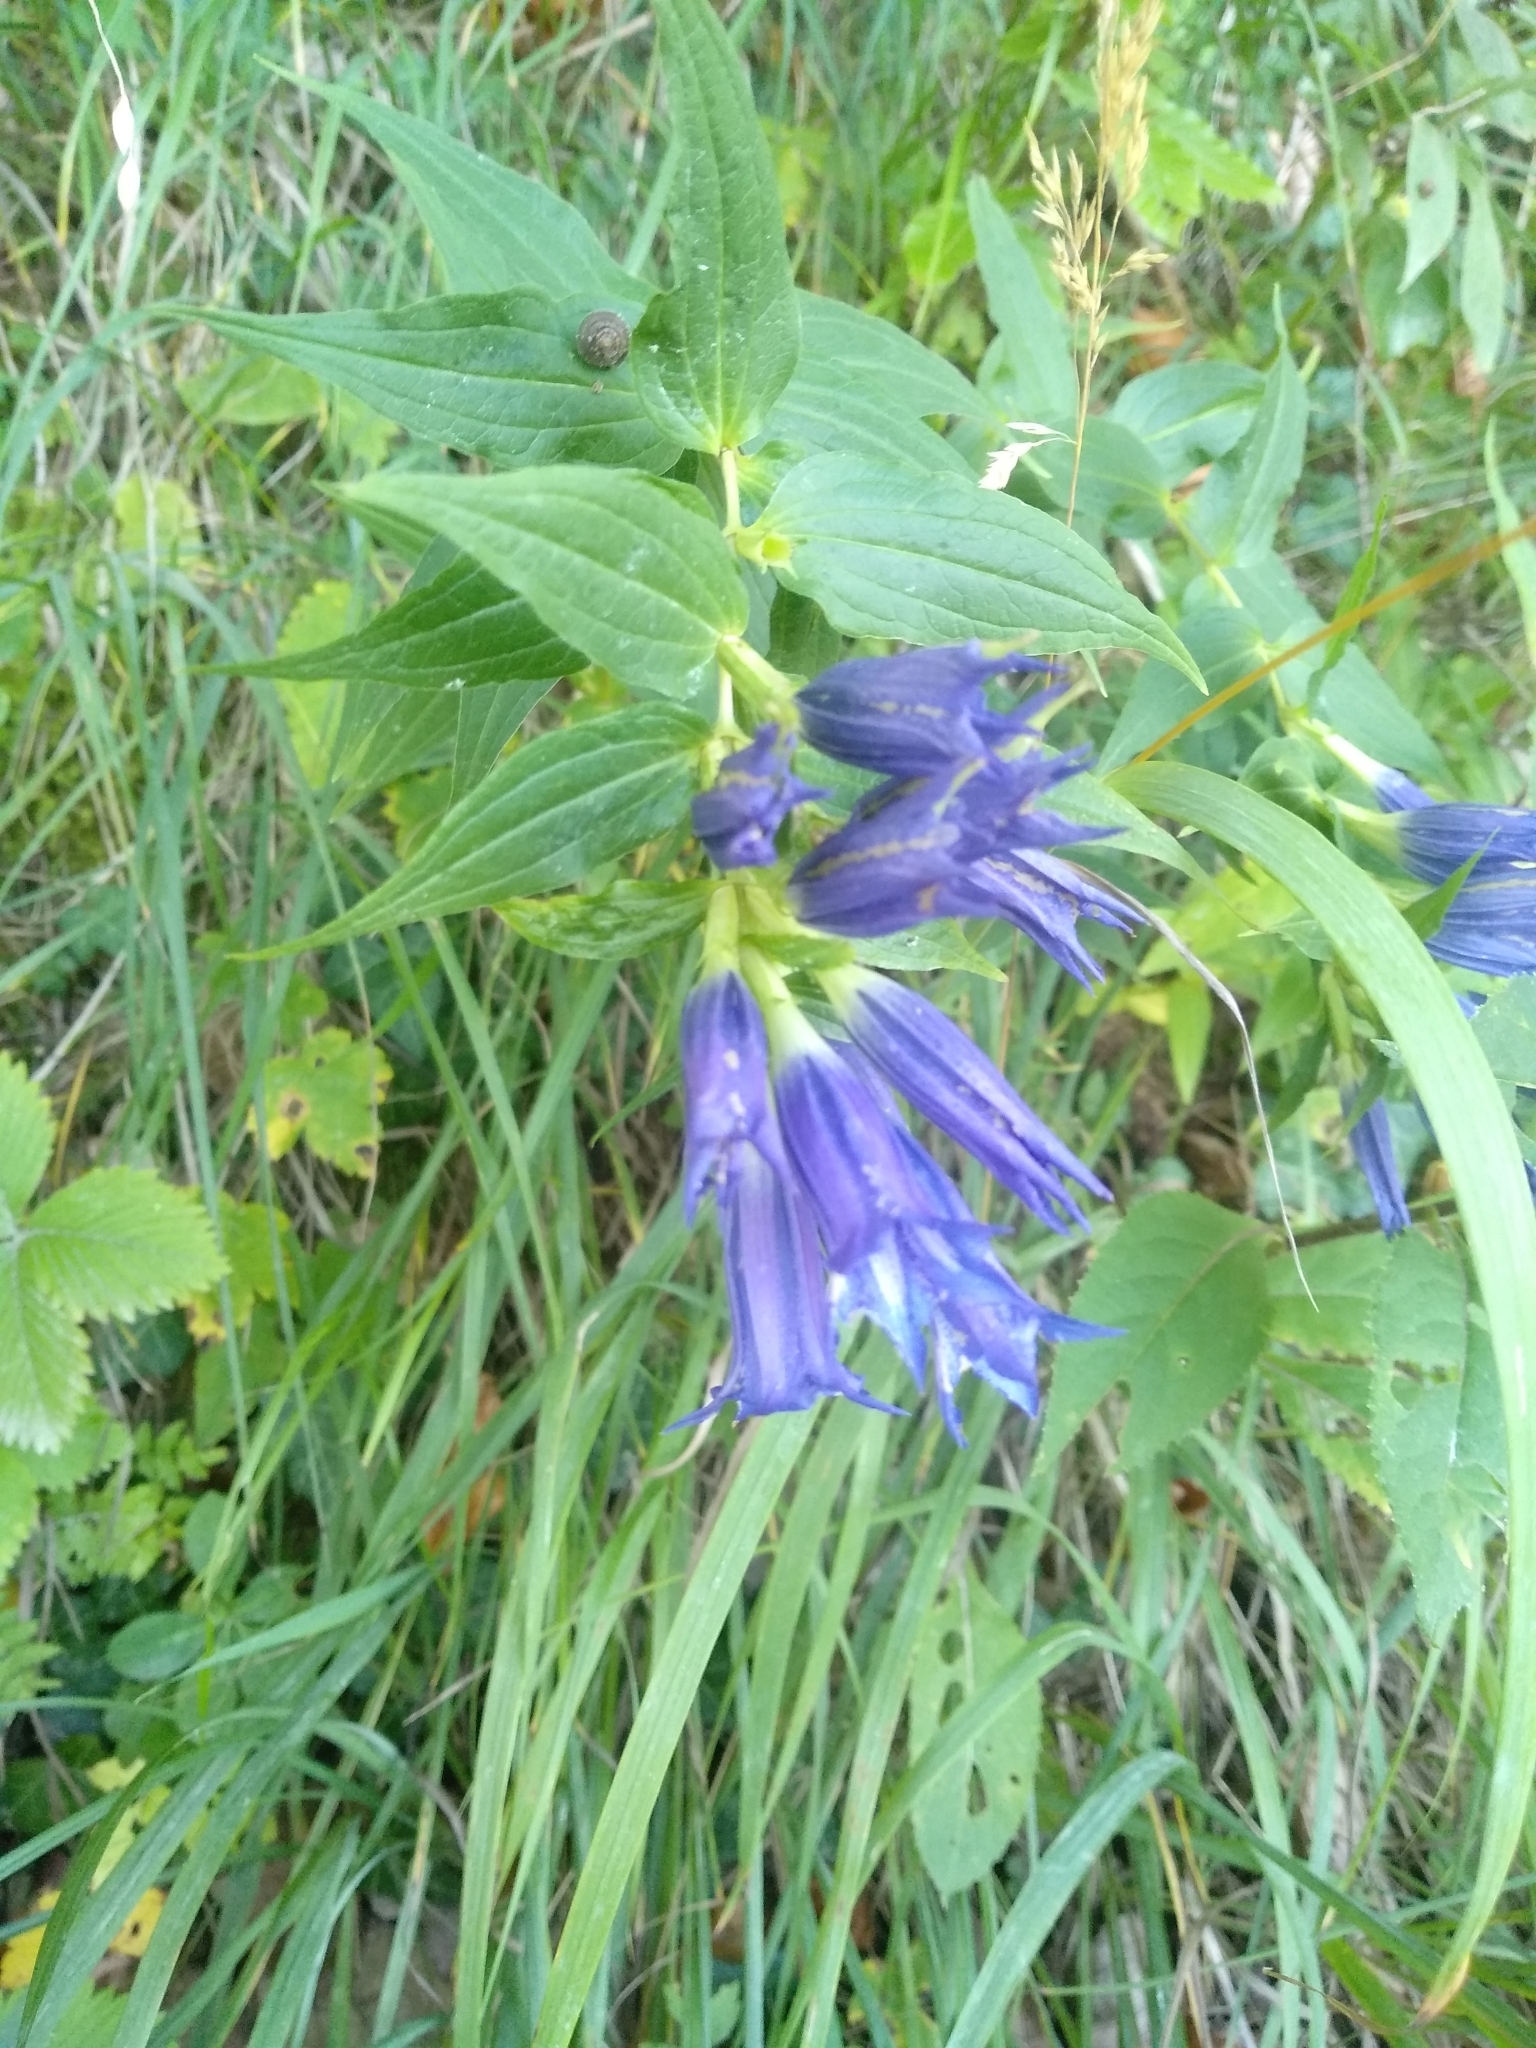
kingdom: Plantae
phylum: Tracheophyta
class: Magnoliopsida
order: Gentianales
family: Gentianaceae
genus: Gentiana
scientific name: Gentiana asclepiadea
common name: Willow gentian
